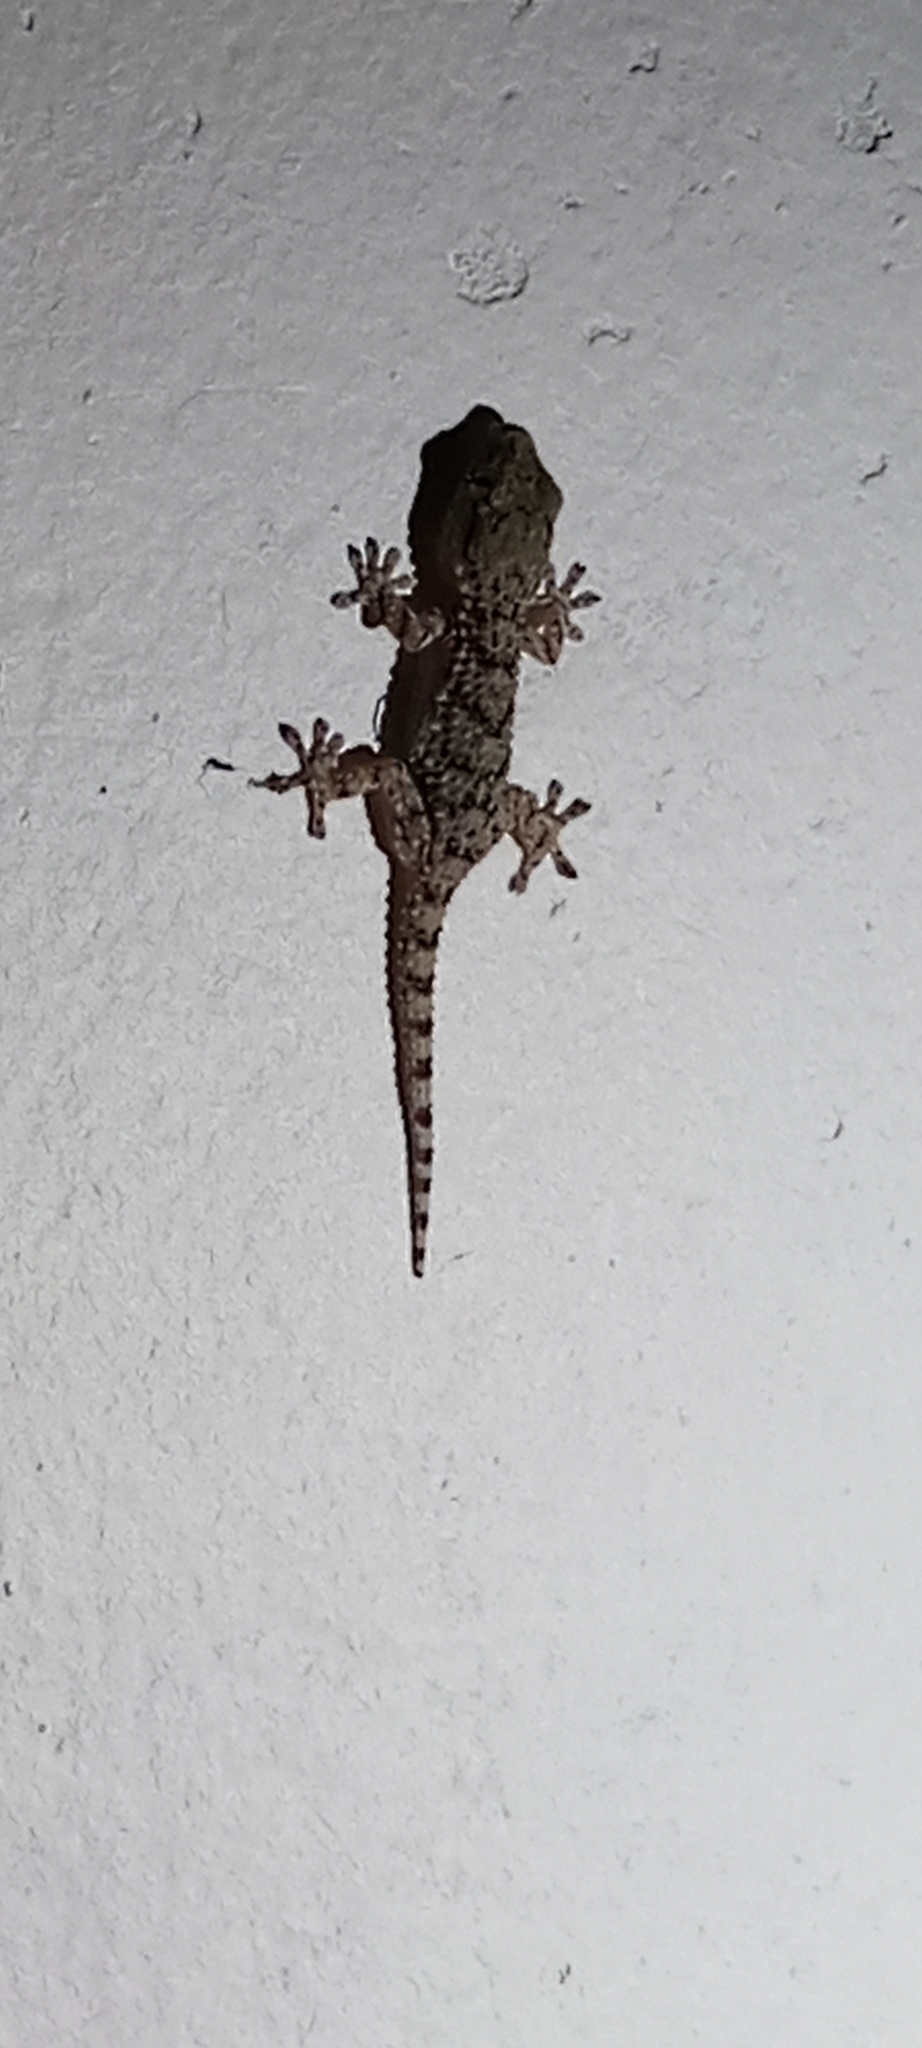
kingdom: Animalia
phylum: Chordata
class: Squamata
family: Phyllodactylidae
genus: Tarentola
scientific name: Tarentola mauritanica
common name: Moorish gecko
